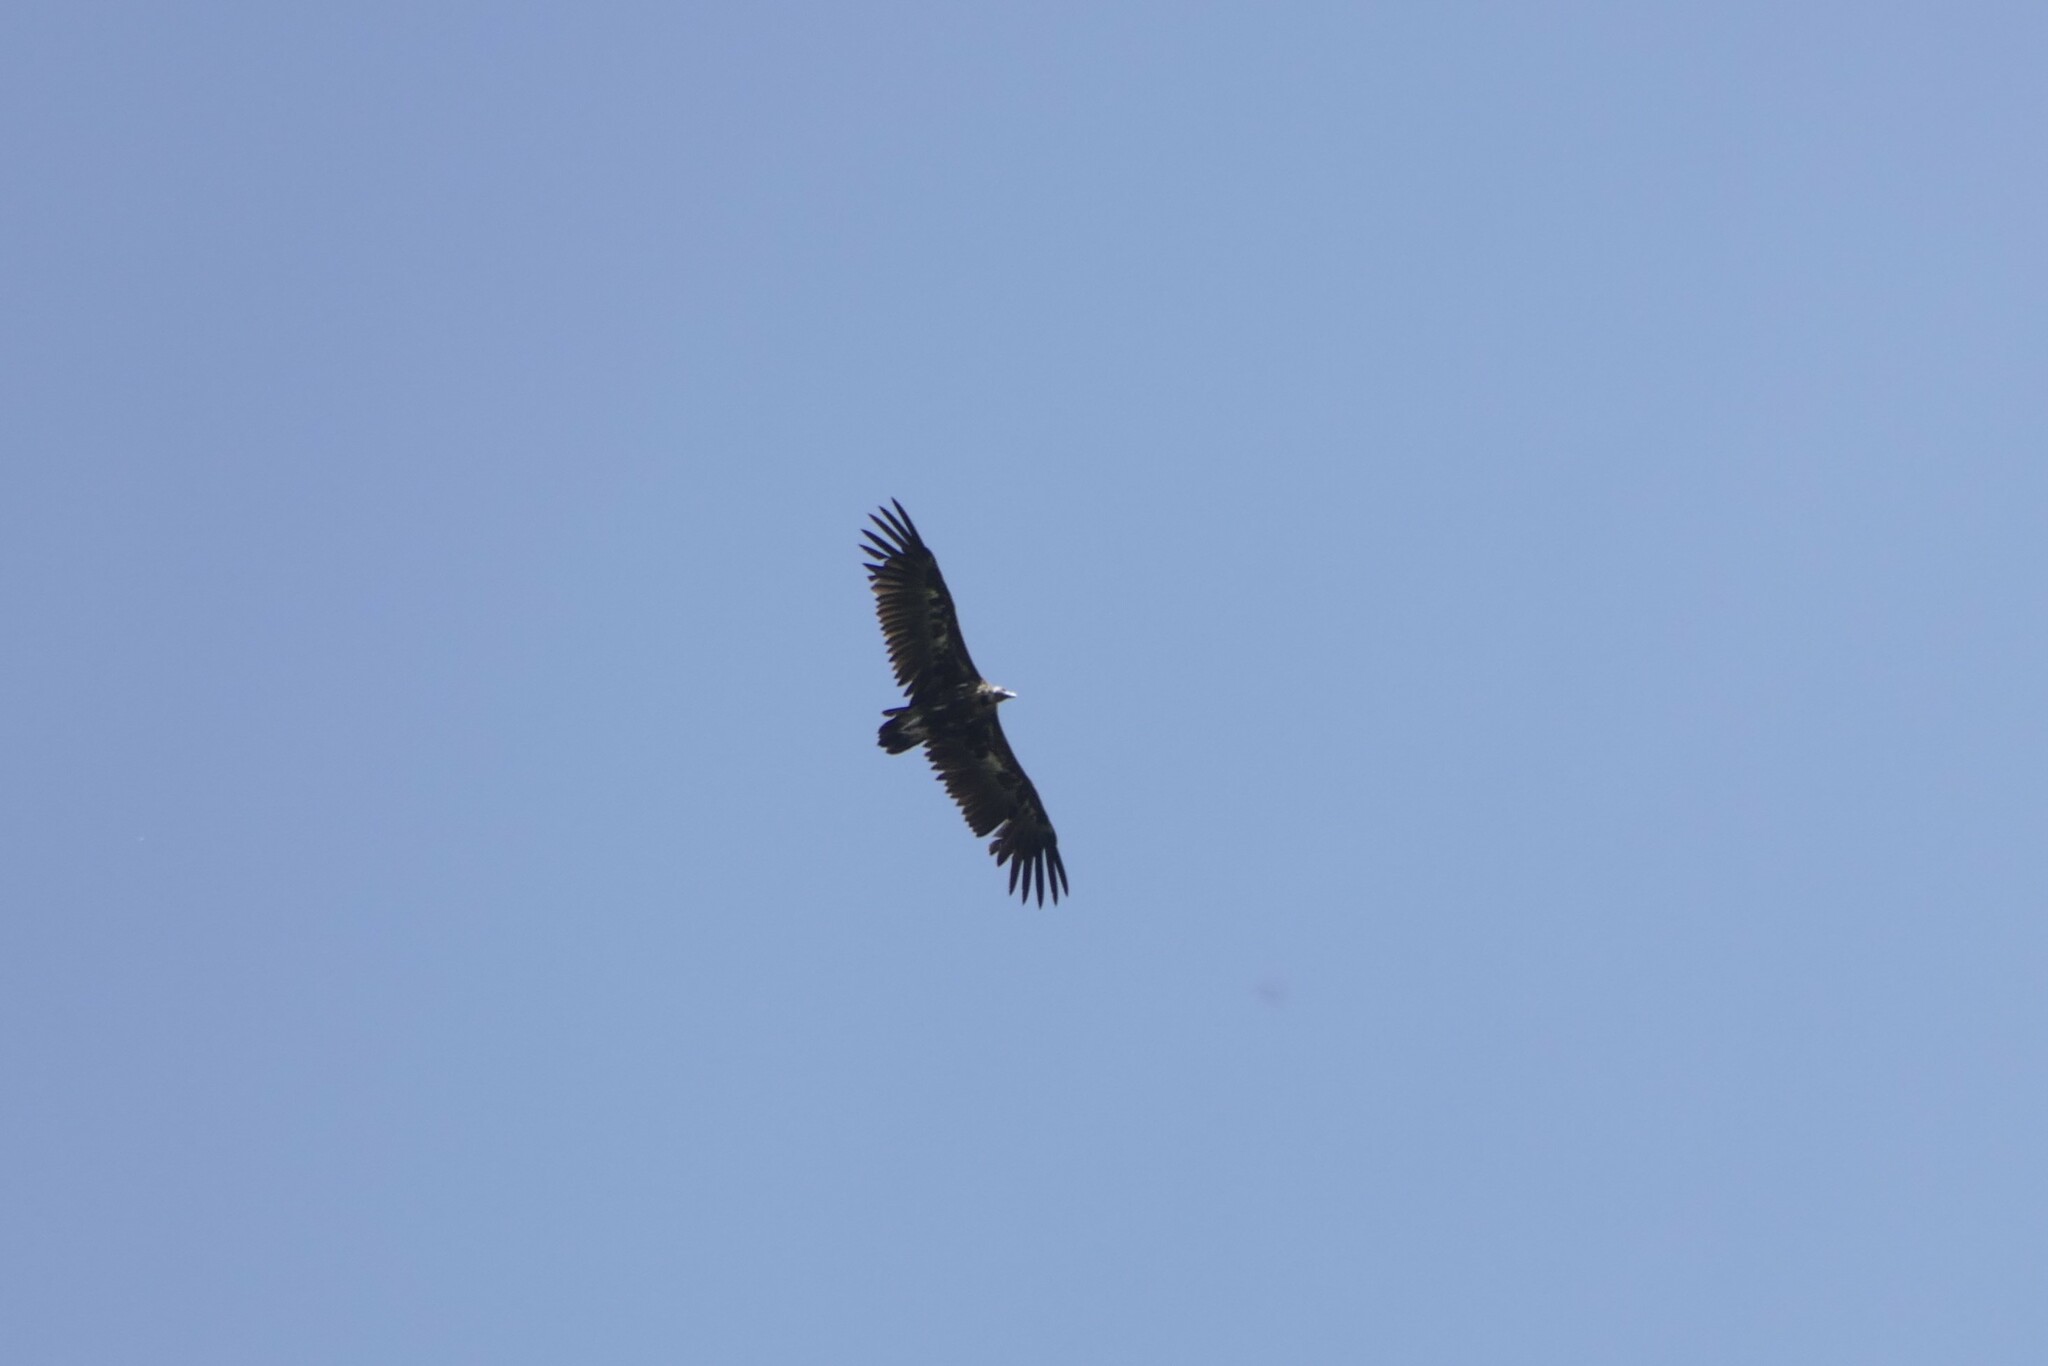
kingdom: Animalia
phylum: Chordata
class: Aves
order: Accipitriformes
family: Accipitridae
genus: Aegypius
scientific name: Aegypius monachus
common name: Cinereous vulture
